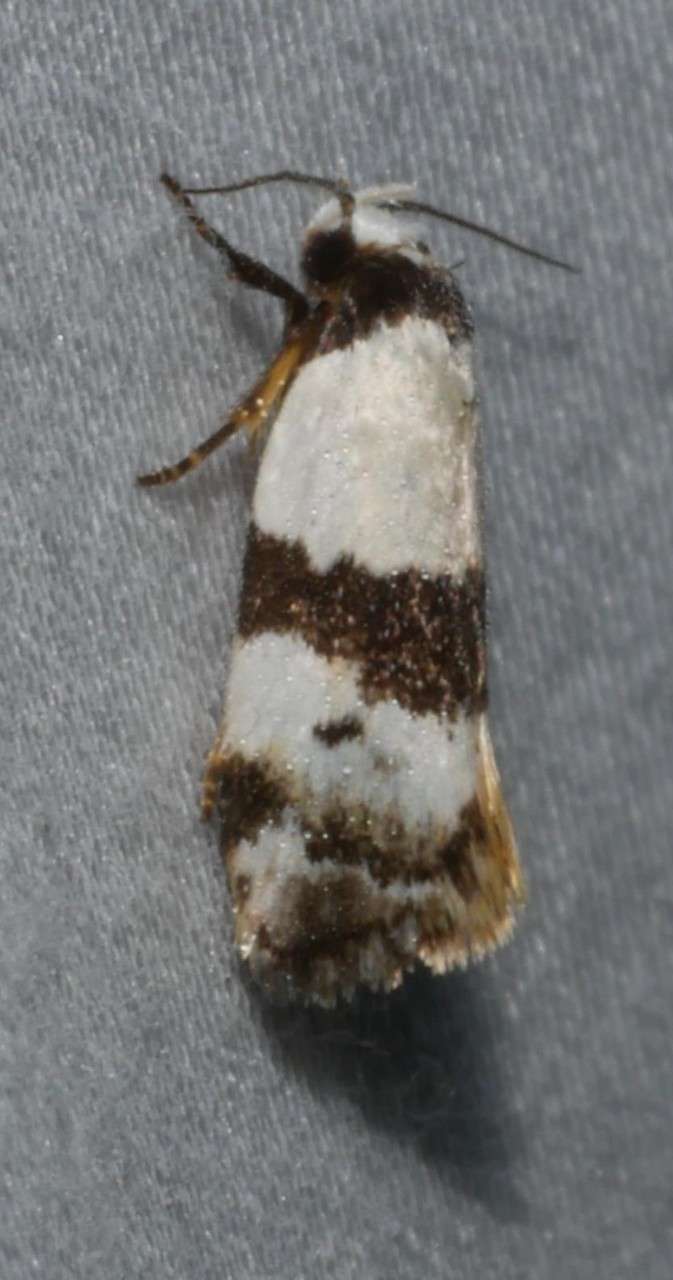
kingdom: Animalia
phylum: Arthropoda
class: Insecta
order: Lepidoptera
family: Oecophoridae
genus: Zonopetala
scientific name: Zonopetala synarthra
